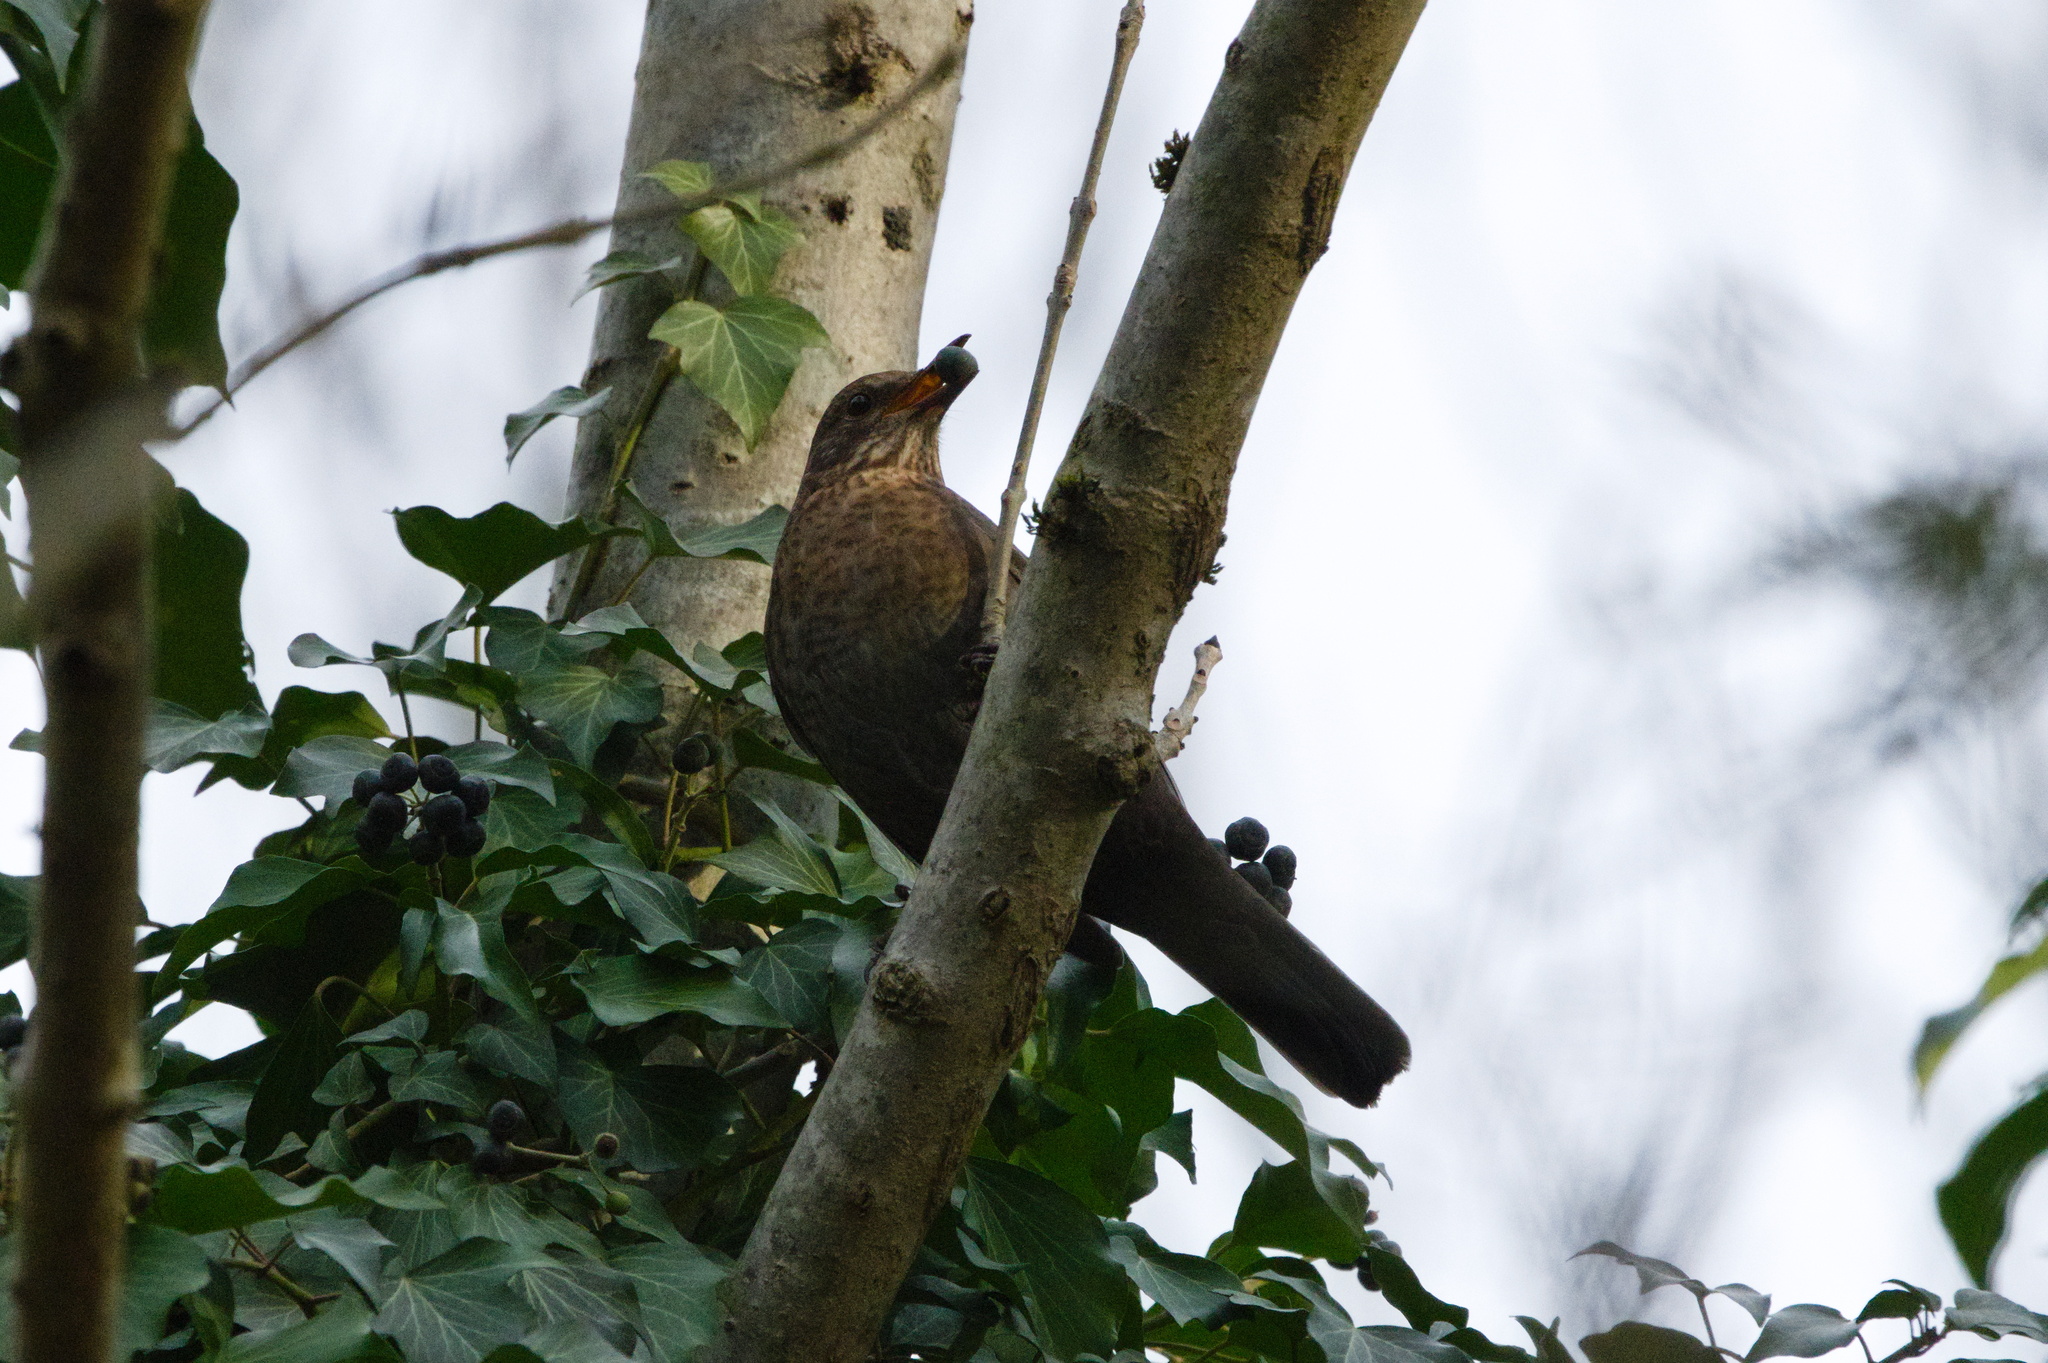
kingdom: Animalia
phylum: Chordata
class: Aves
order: Passeriformes
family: Turdidae
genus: Turdus
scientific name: Turdus merula
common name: Common blackbird
